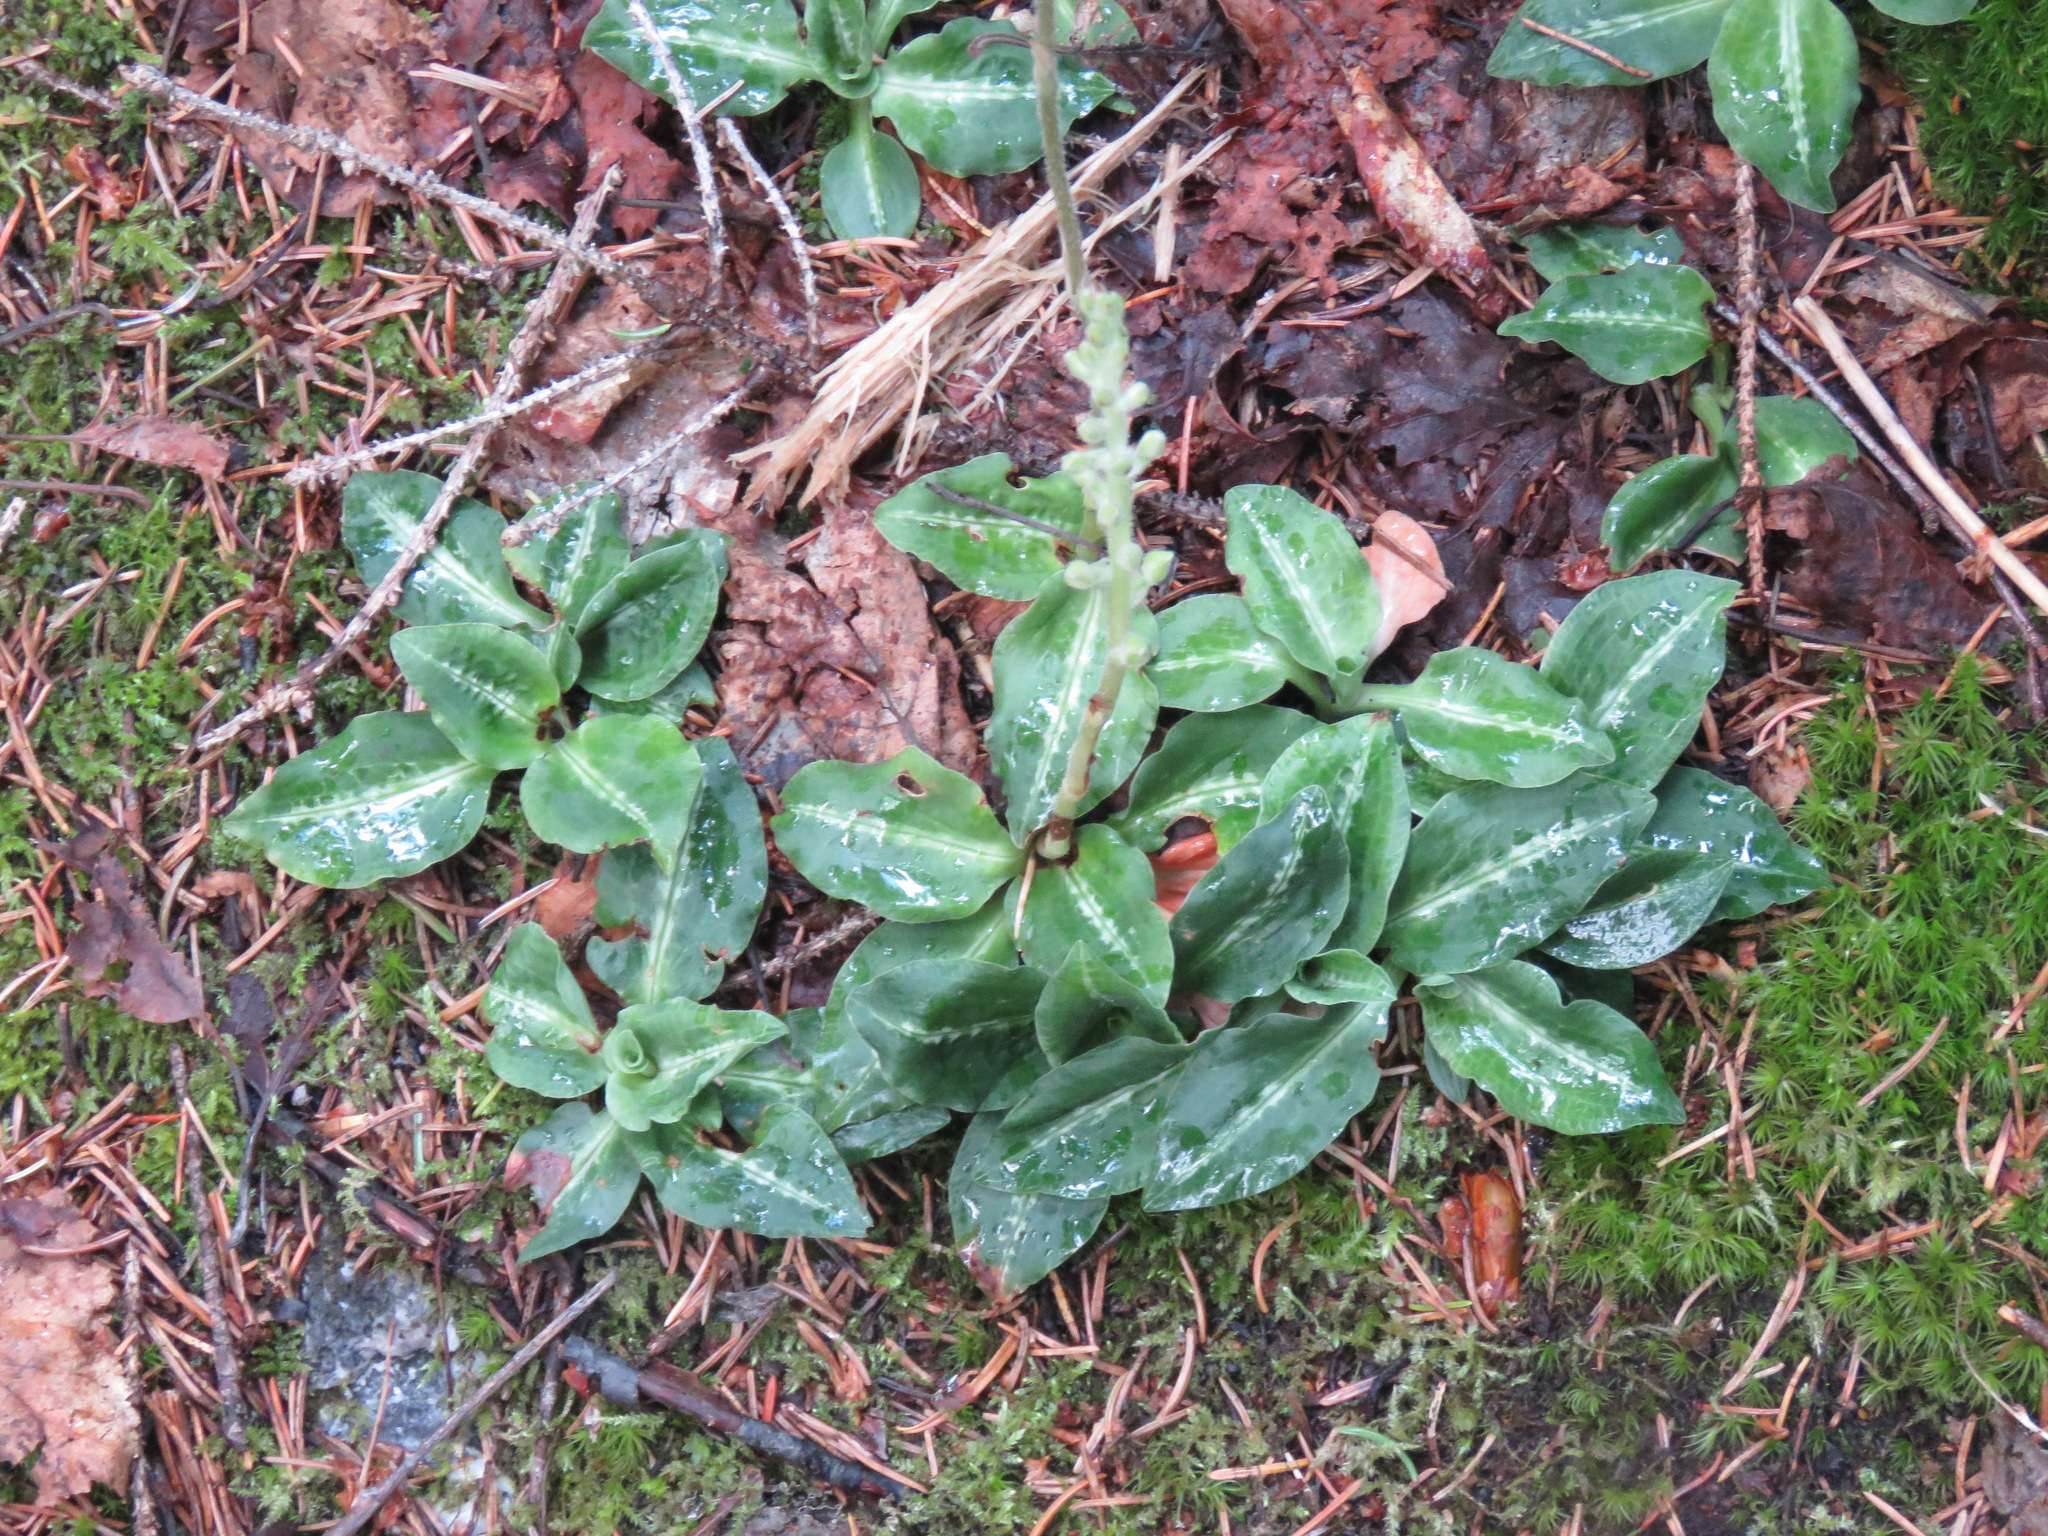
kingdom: Plantae
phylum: Tracheophyta
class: Liliopsida
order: Asparagales
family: Orchidaceae
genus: Goodyera
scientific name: Goodyera oblongifolia
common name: Giant rattlesnake-plantain
